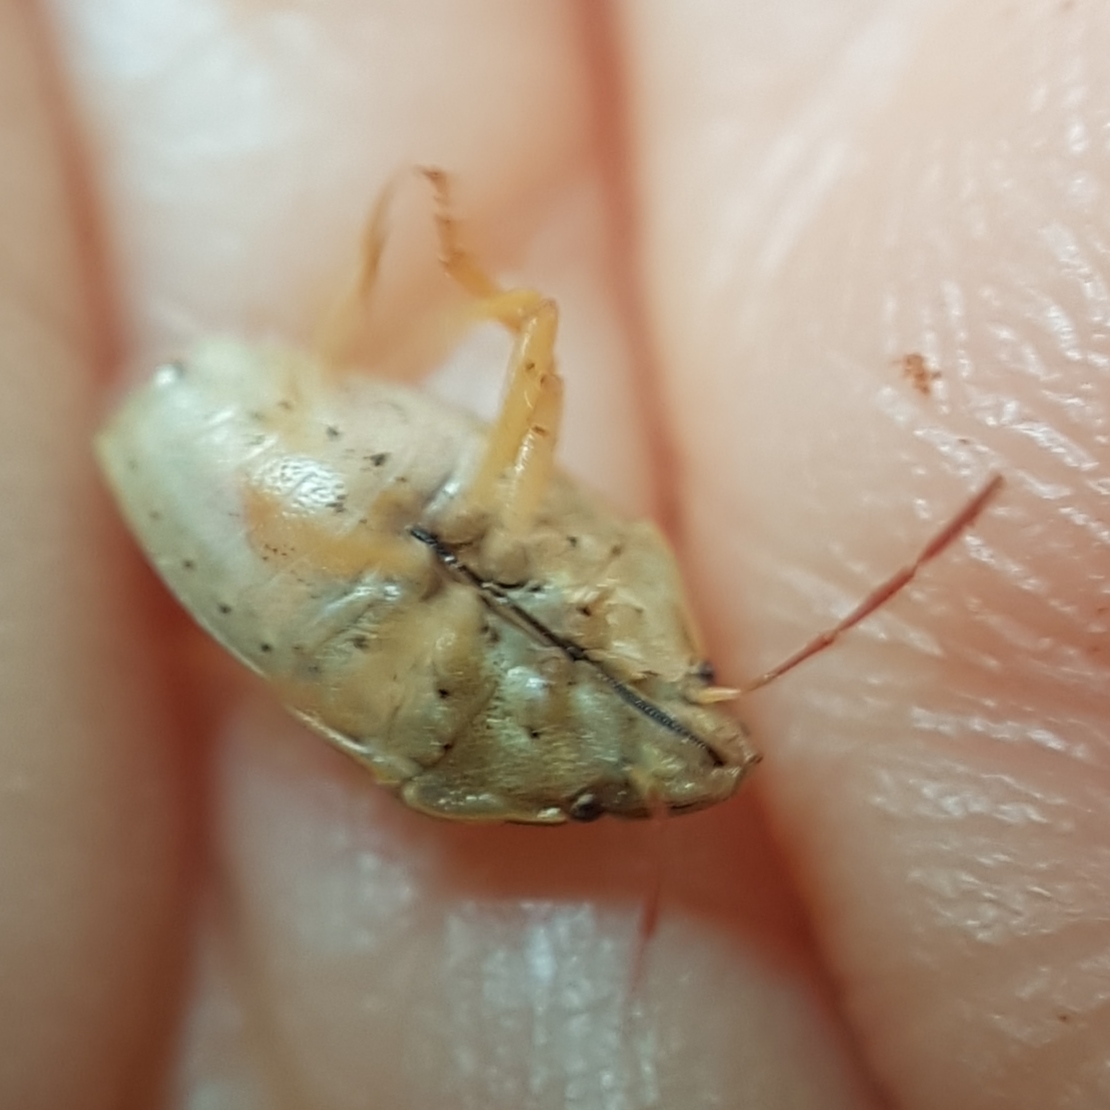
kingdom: Animalia
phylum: Arthropoda
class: Insecta
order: Hemiptera
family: Pentatomidae
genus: Aelia
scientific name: Aelia acuminata
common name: Bishop's mitre
